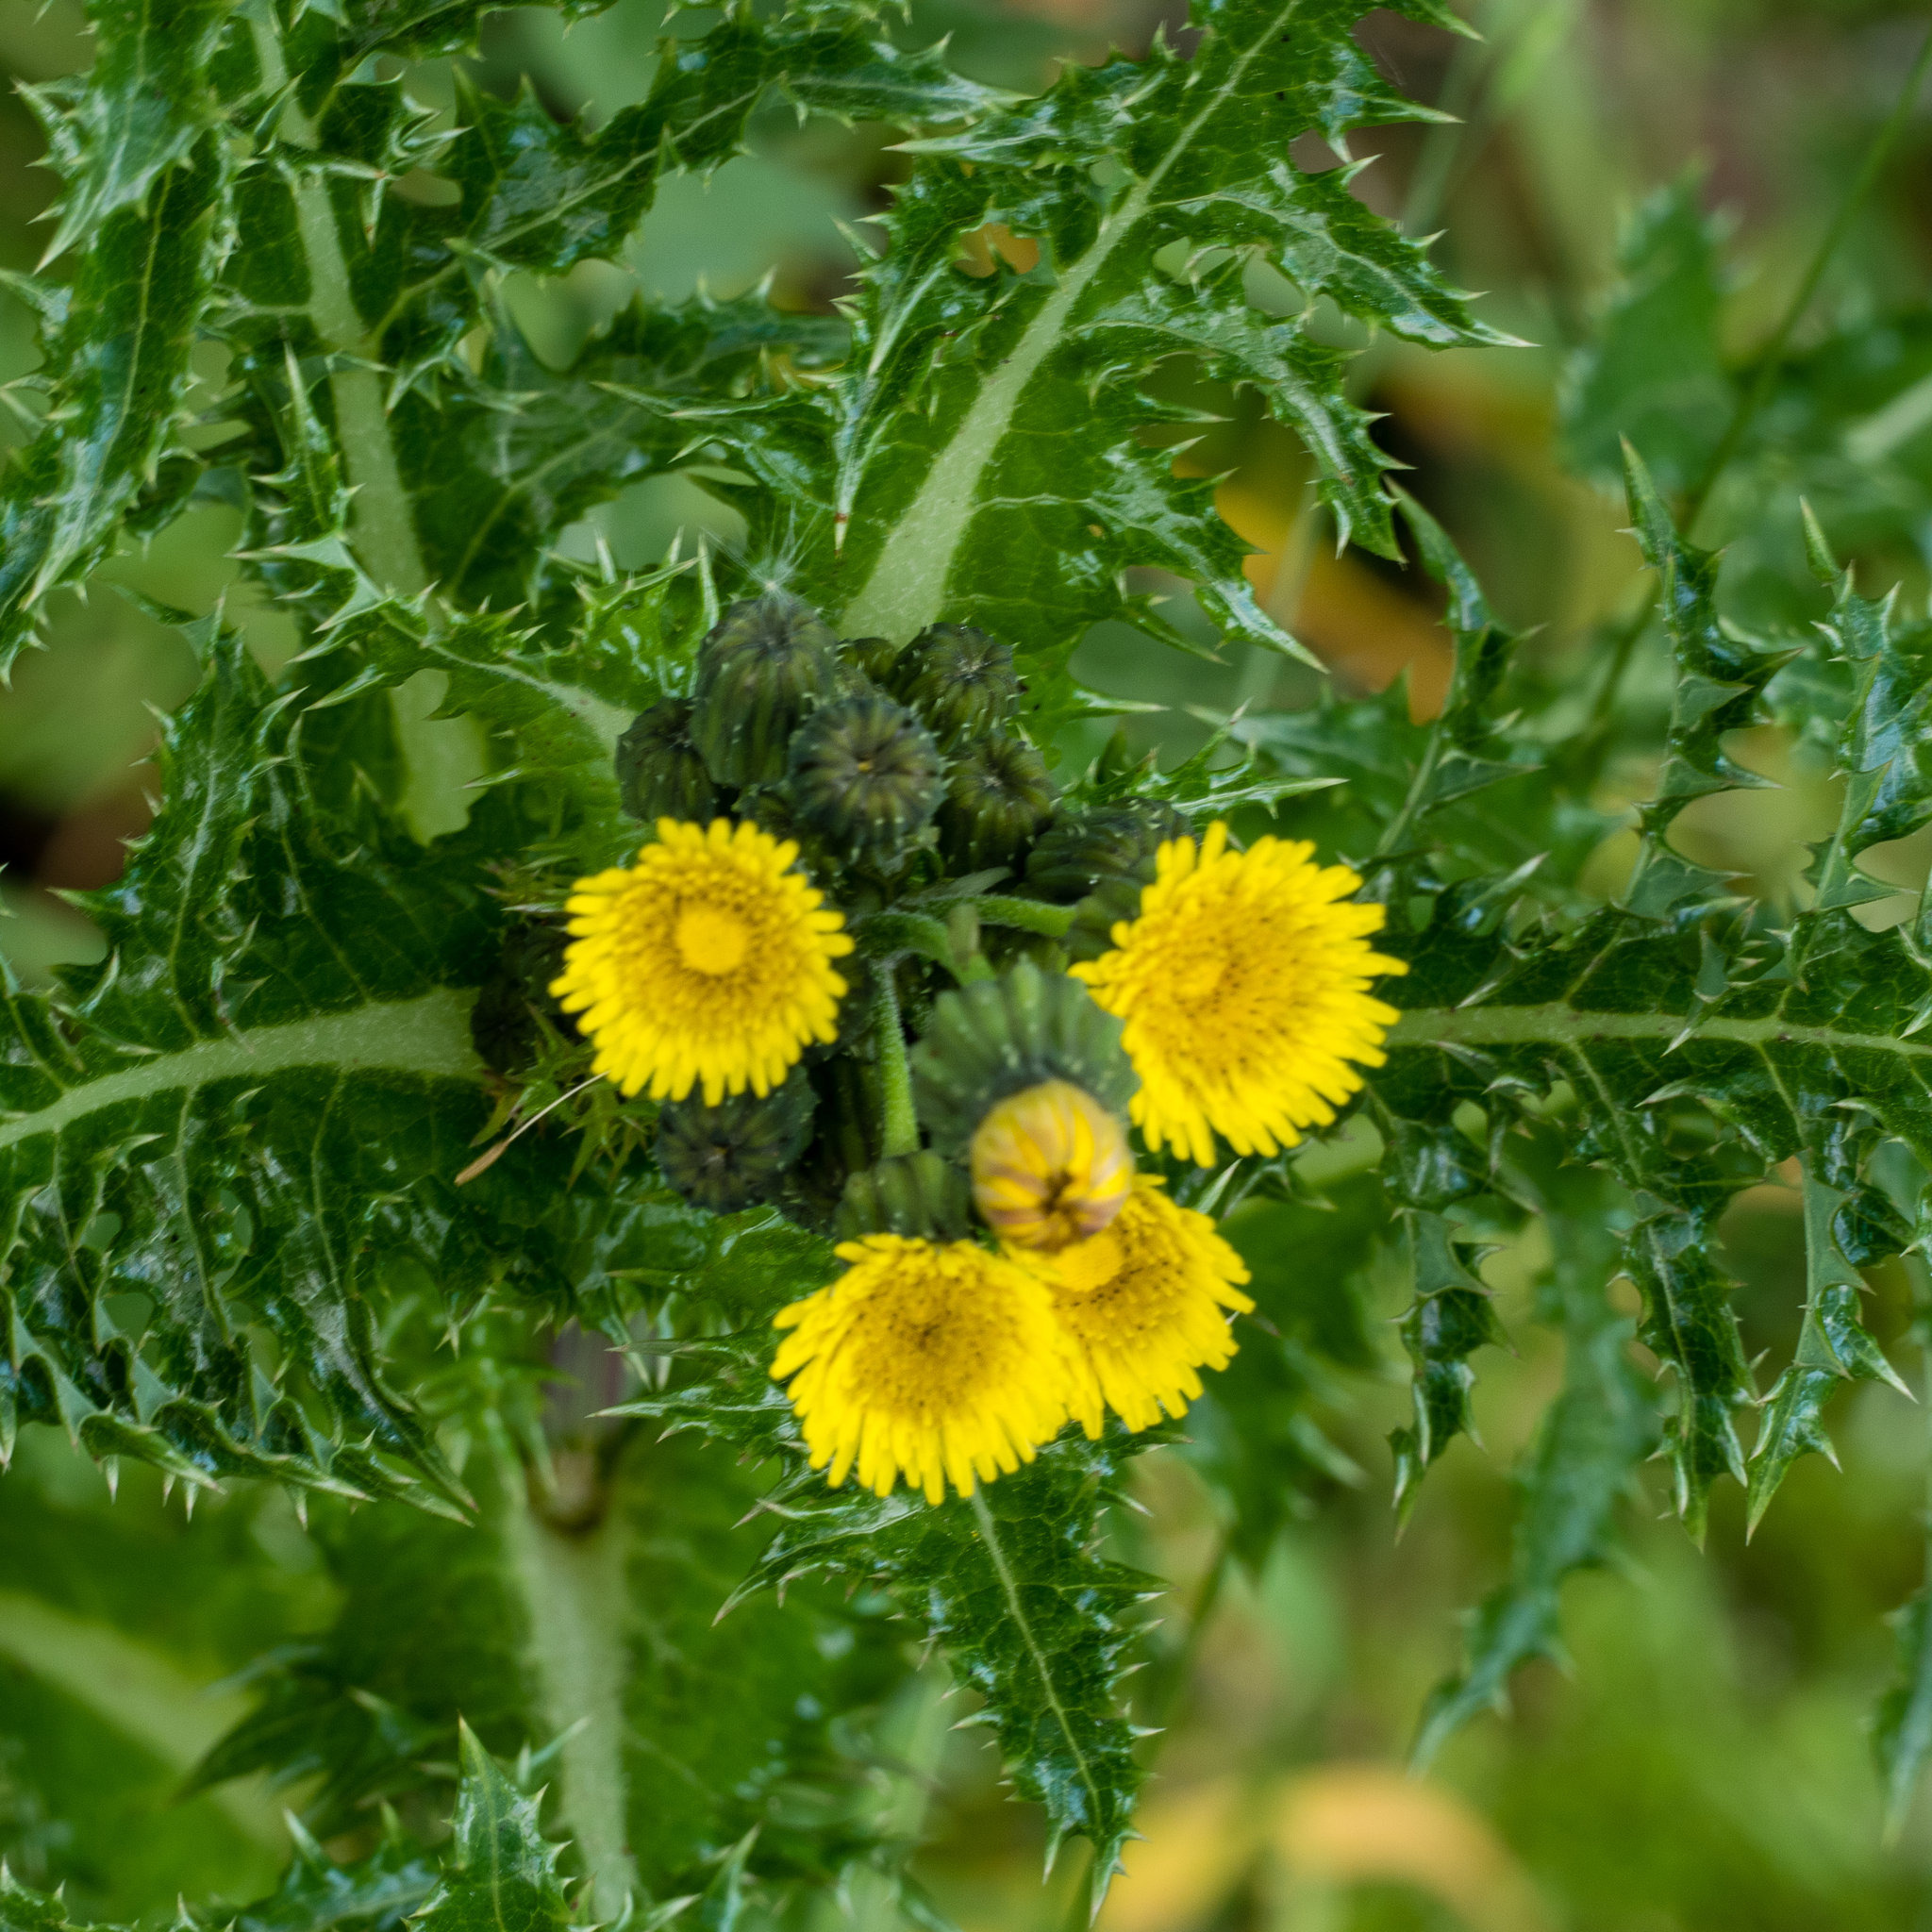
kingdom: Plantae
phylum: Tracheophyta
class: Magnoliopsida
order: Asterales
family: Asteraceae
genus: Sonchus
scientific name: Sonchus asper
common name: Prickly sow-thistle
